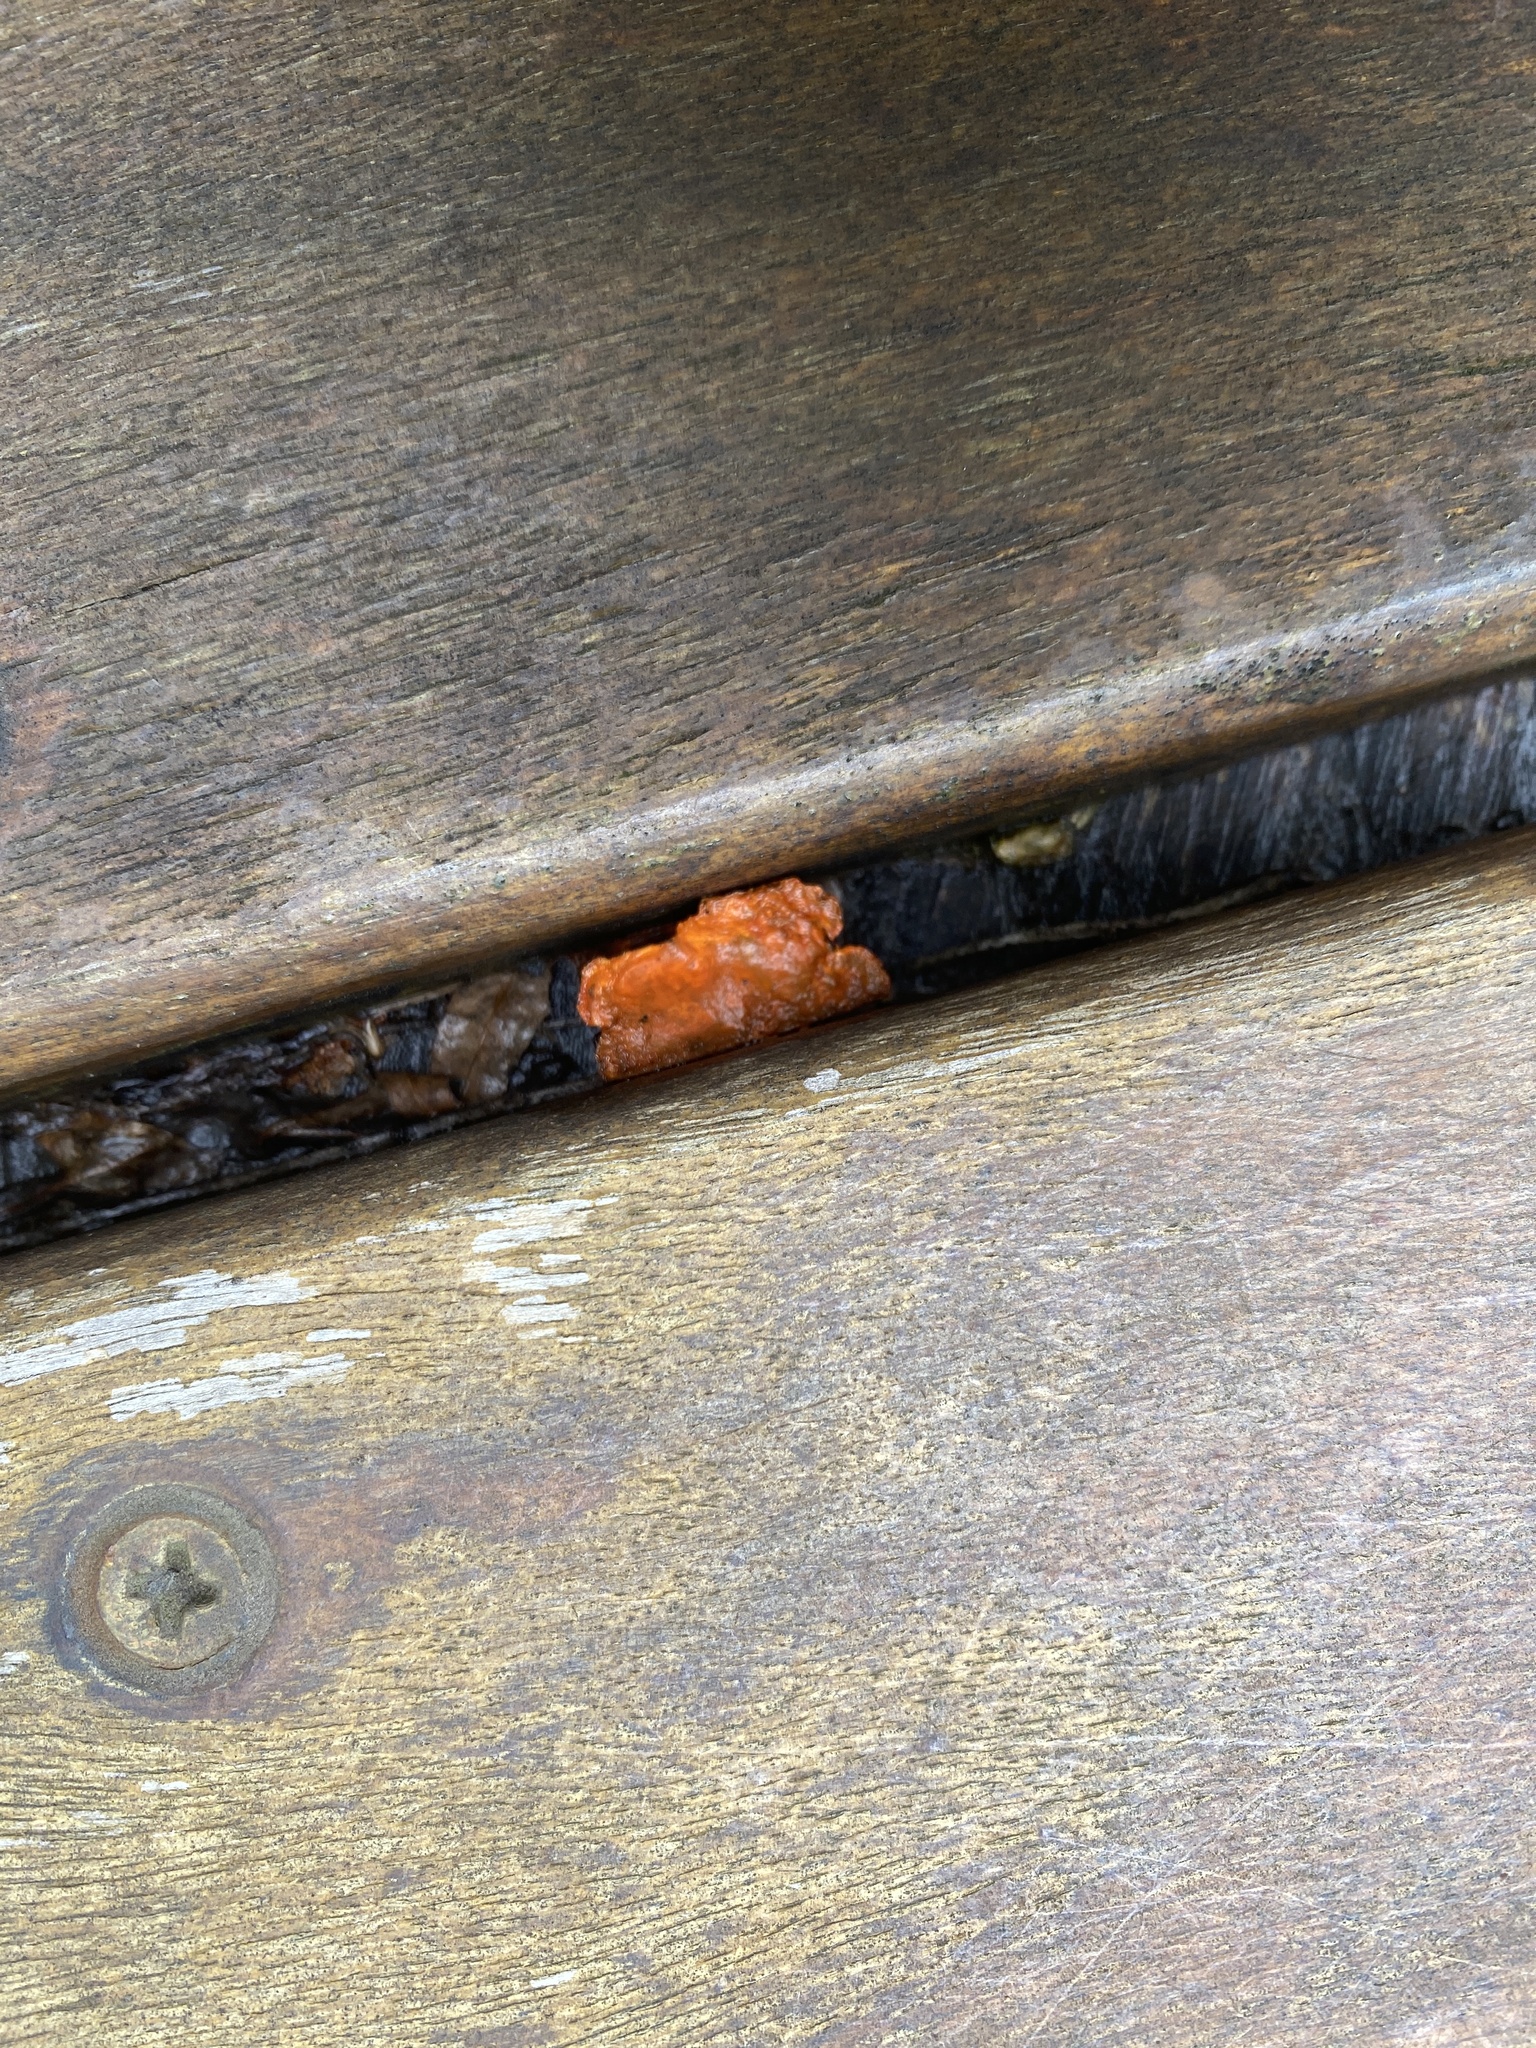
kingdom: Fungi
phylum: Basidiomycota
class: Agaricomycetes
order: Polyporales
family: Polyporaceae
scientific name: Polyporaceae
